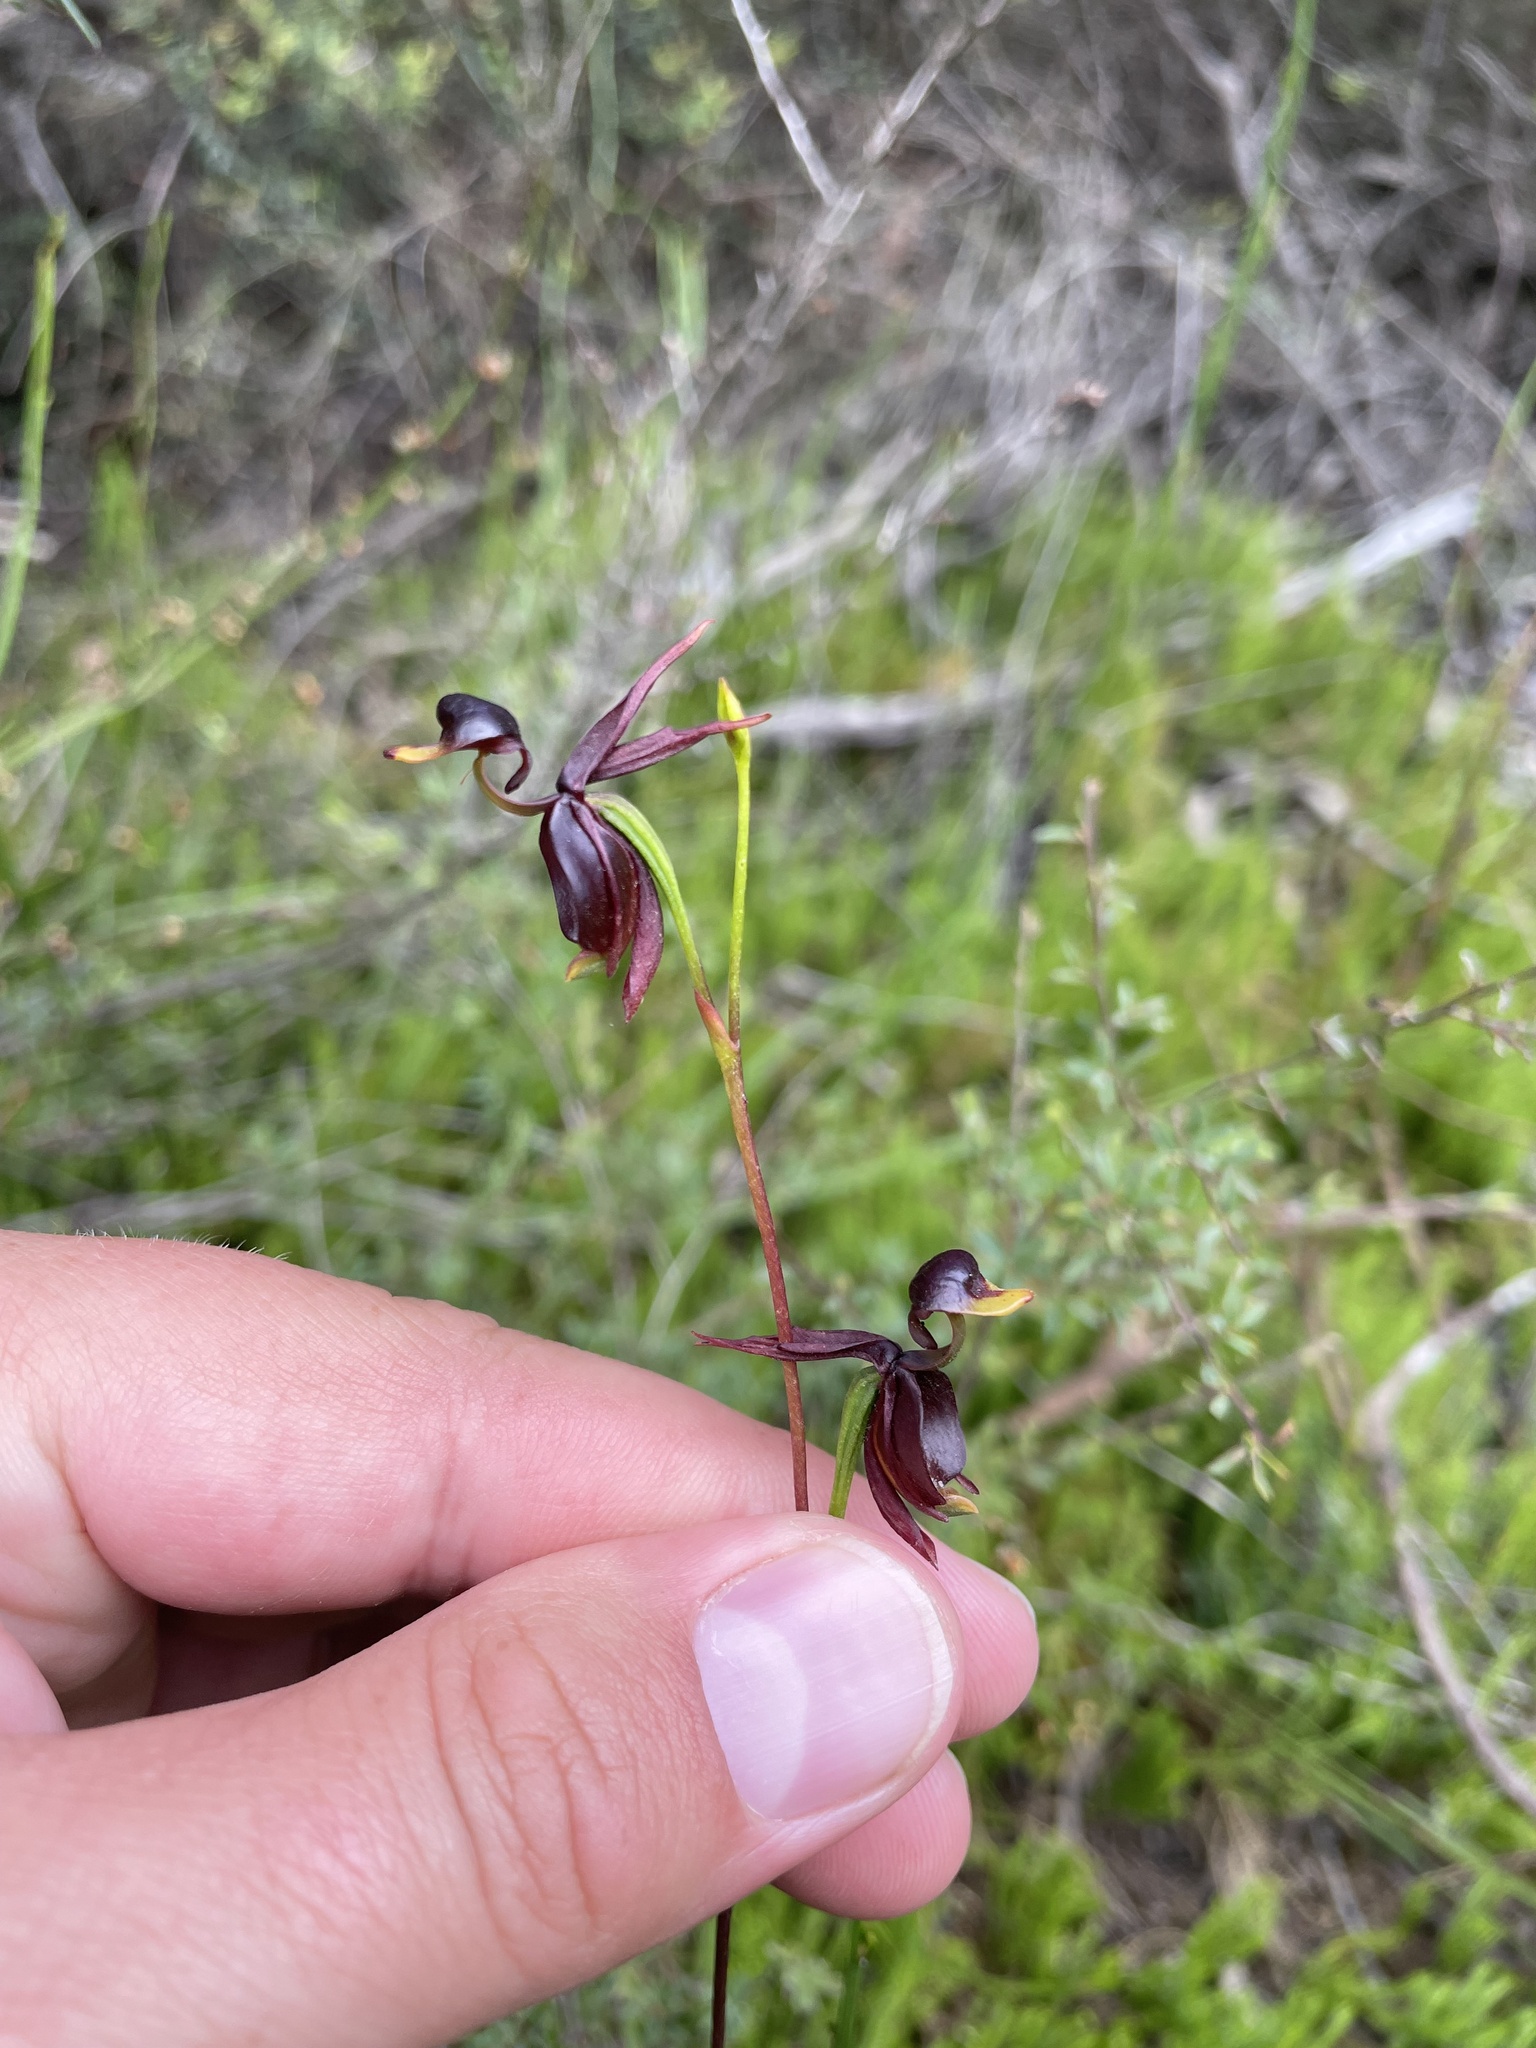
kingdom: Plantae
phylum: Tracheophyta
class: Liliopsida
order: Asparagales
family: Orchidaceae
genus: Caleana
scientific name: Caleana major
